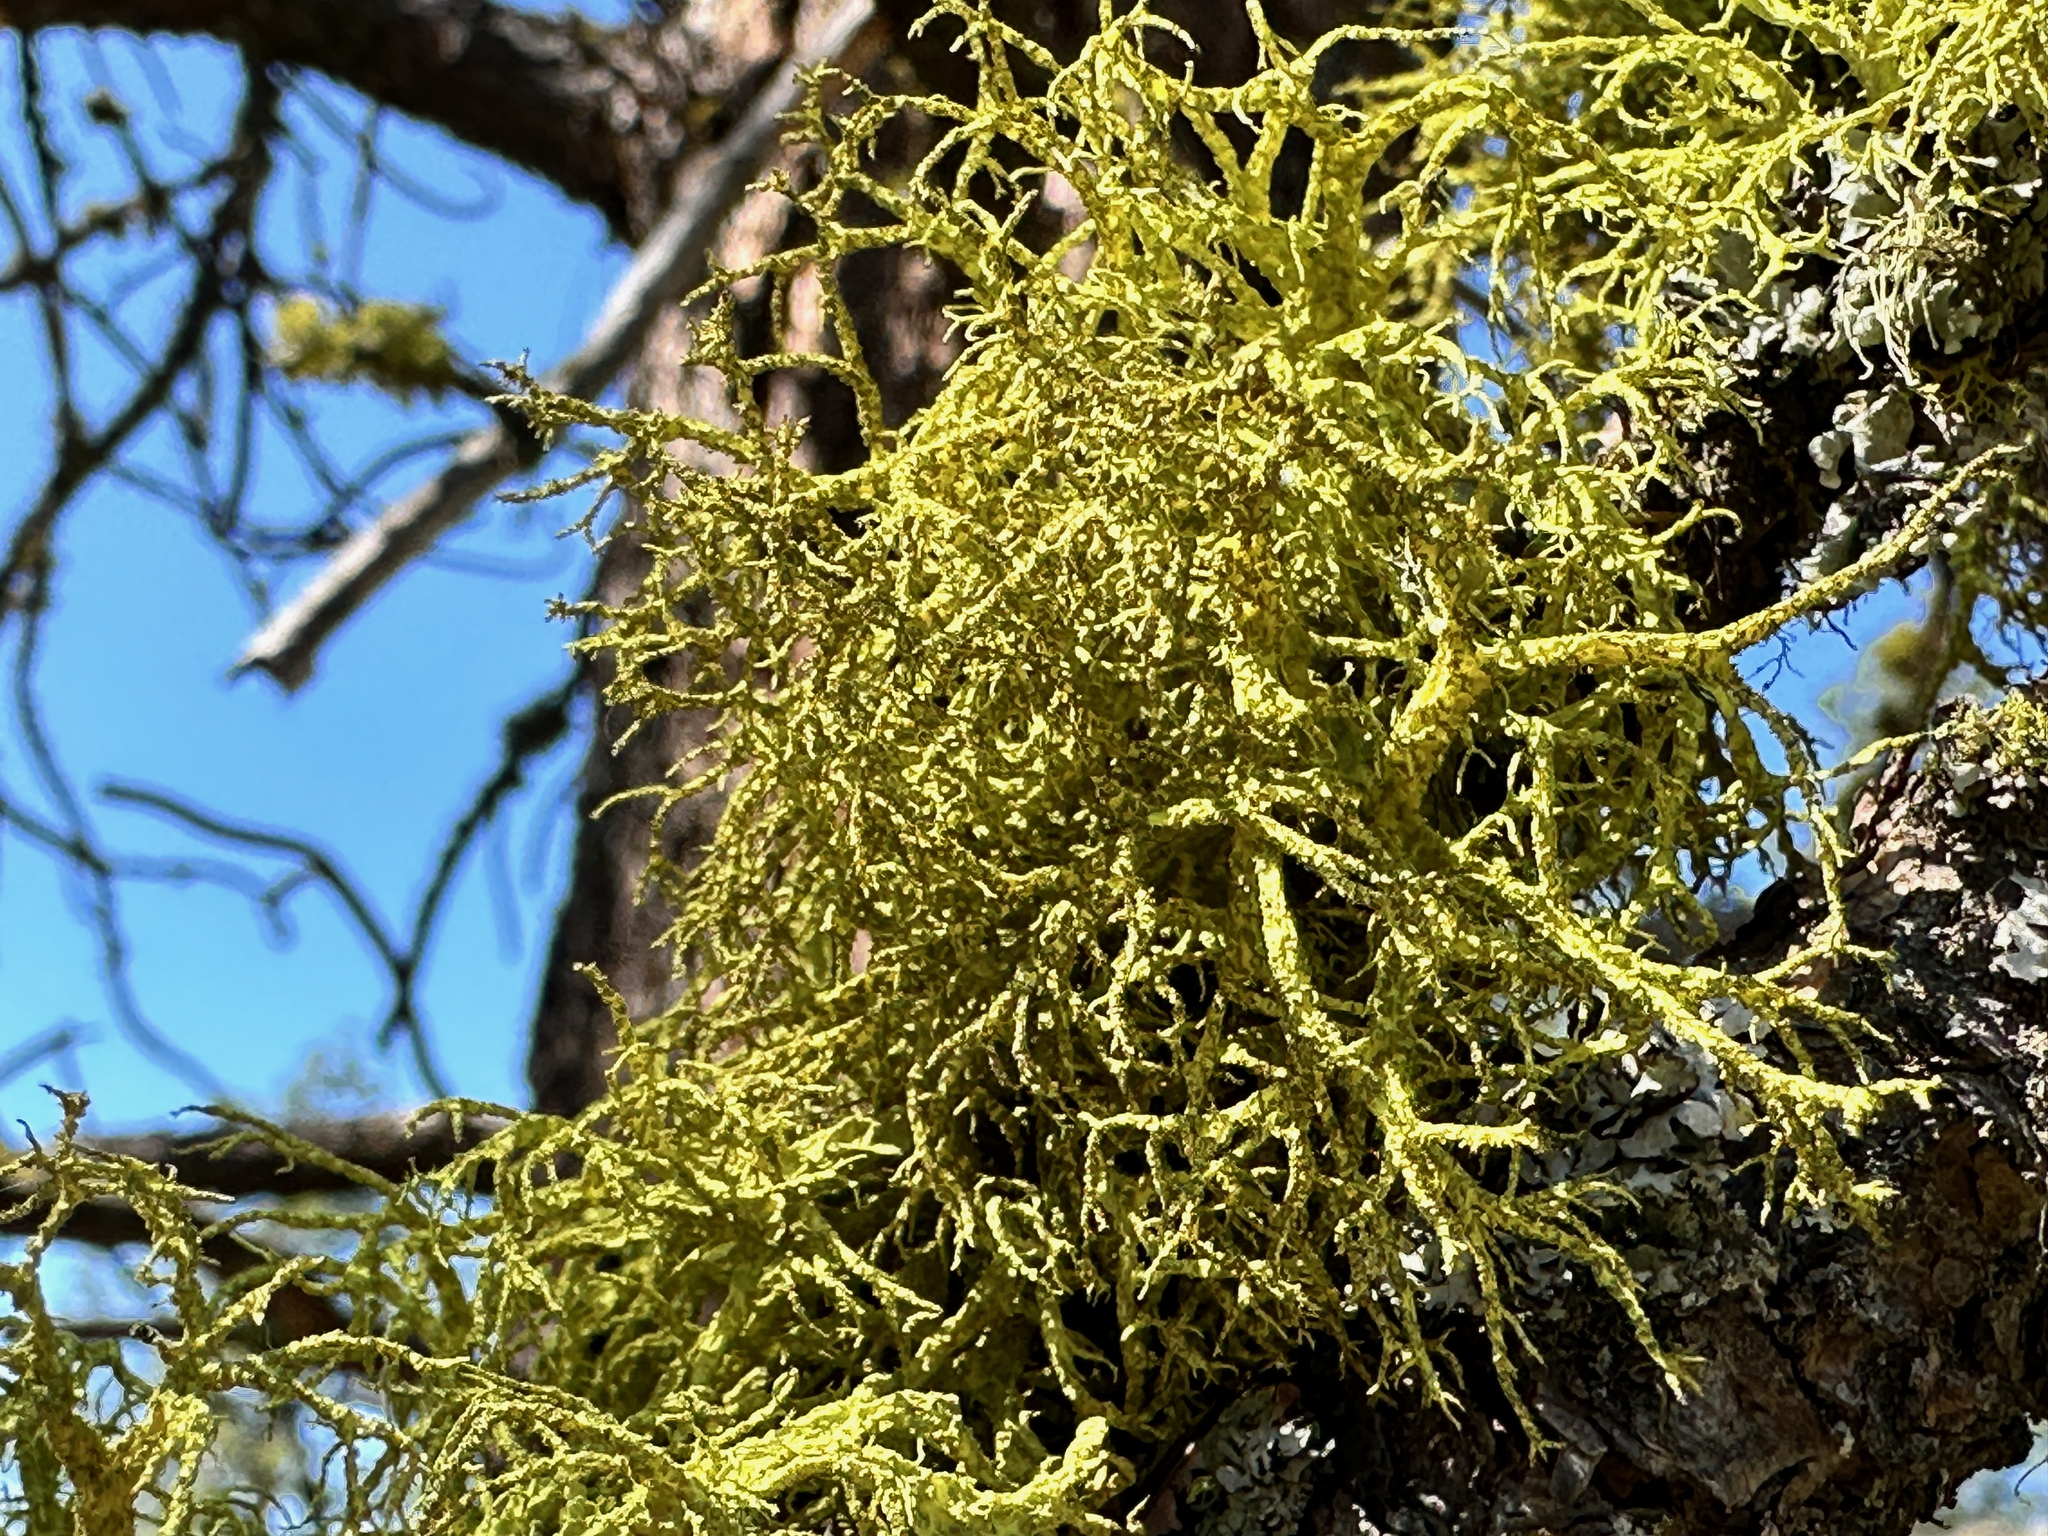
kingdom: Fungi
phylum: Ascomycota
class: Lecanoromycetes
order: Lecanorales
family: Parmeliaceae
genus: Letharia
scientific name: Letharia vulpina
